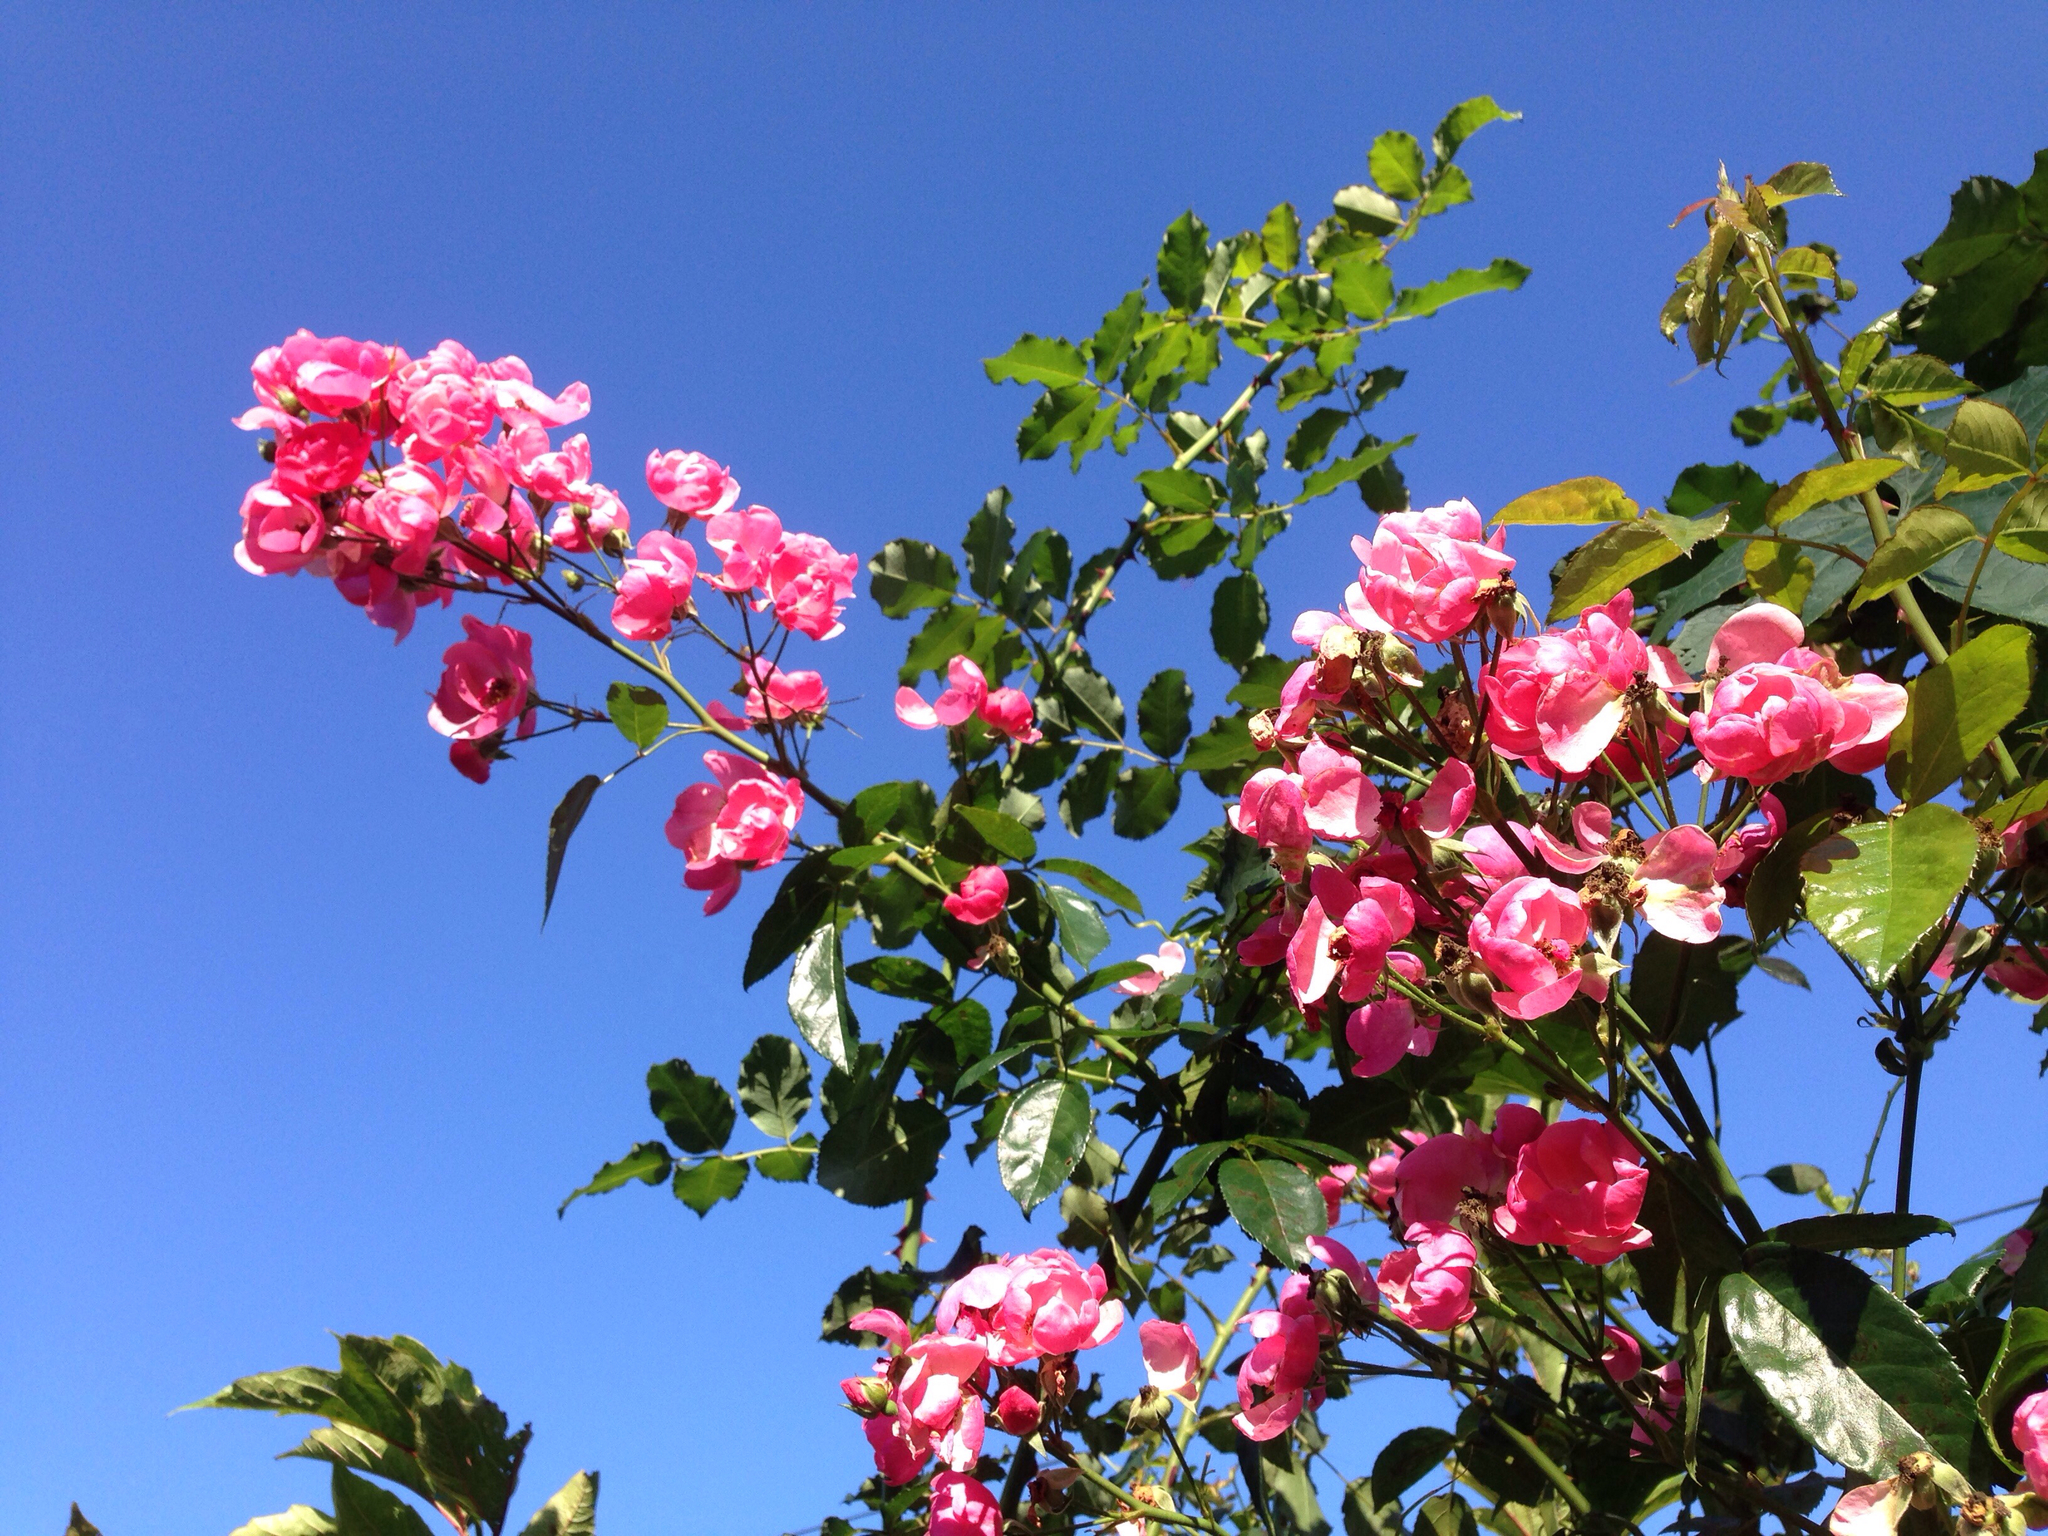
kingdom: Plantae
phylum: Tracheophyta
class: Magnoliopsida
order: Rosales
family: Rosaceae
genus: Rosa
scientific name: Rosa
